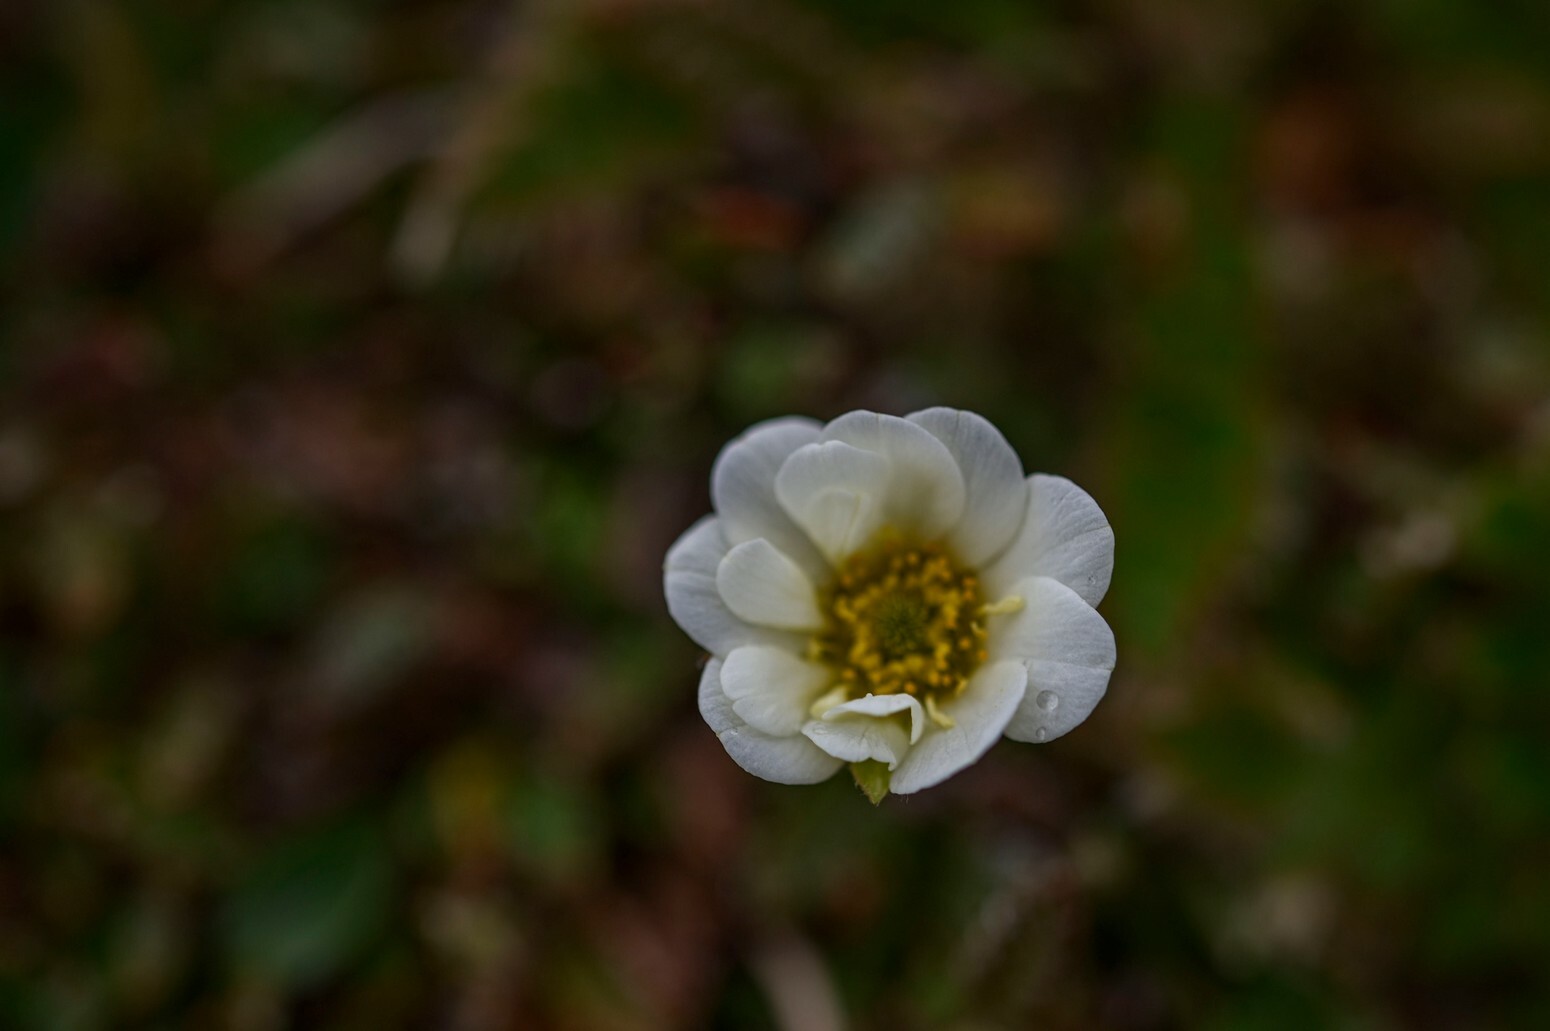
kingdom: Plantae
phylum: Tracheophyta
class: Magnoliopsida
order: Rosales
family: Rosaceae
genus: Dryas
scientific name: Dryas octopetala
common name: Eight-petal mountain-avens
